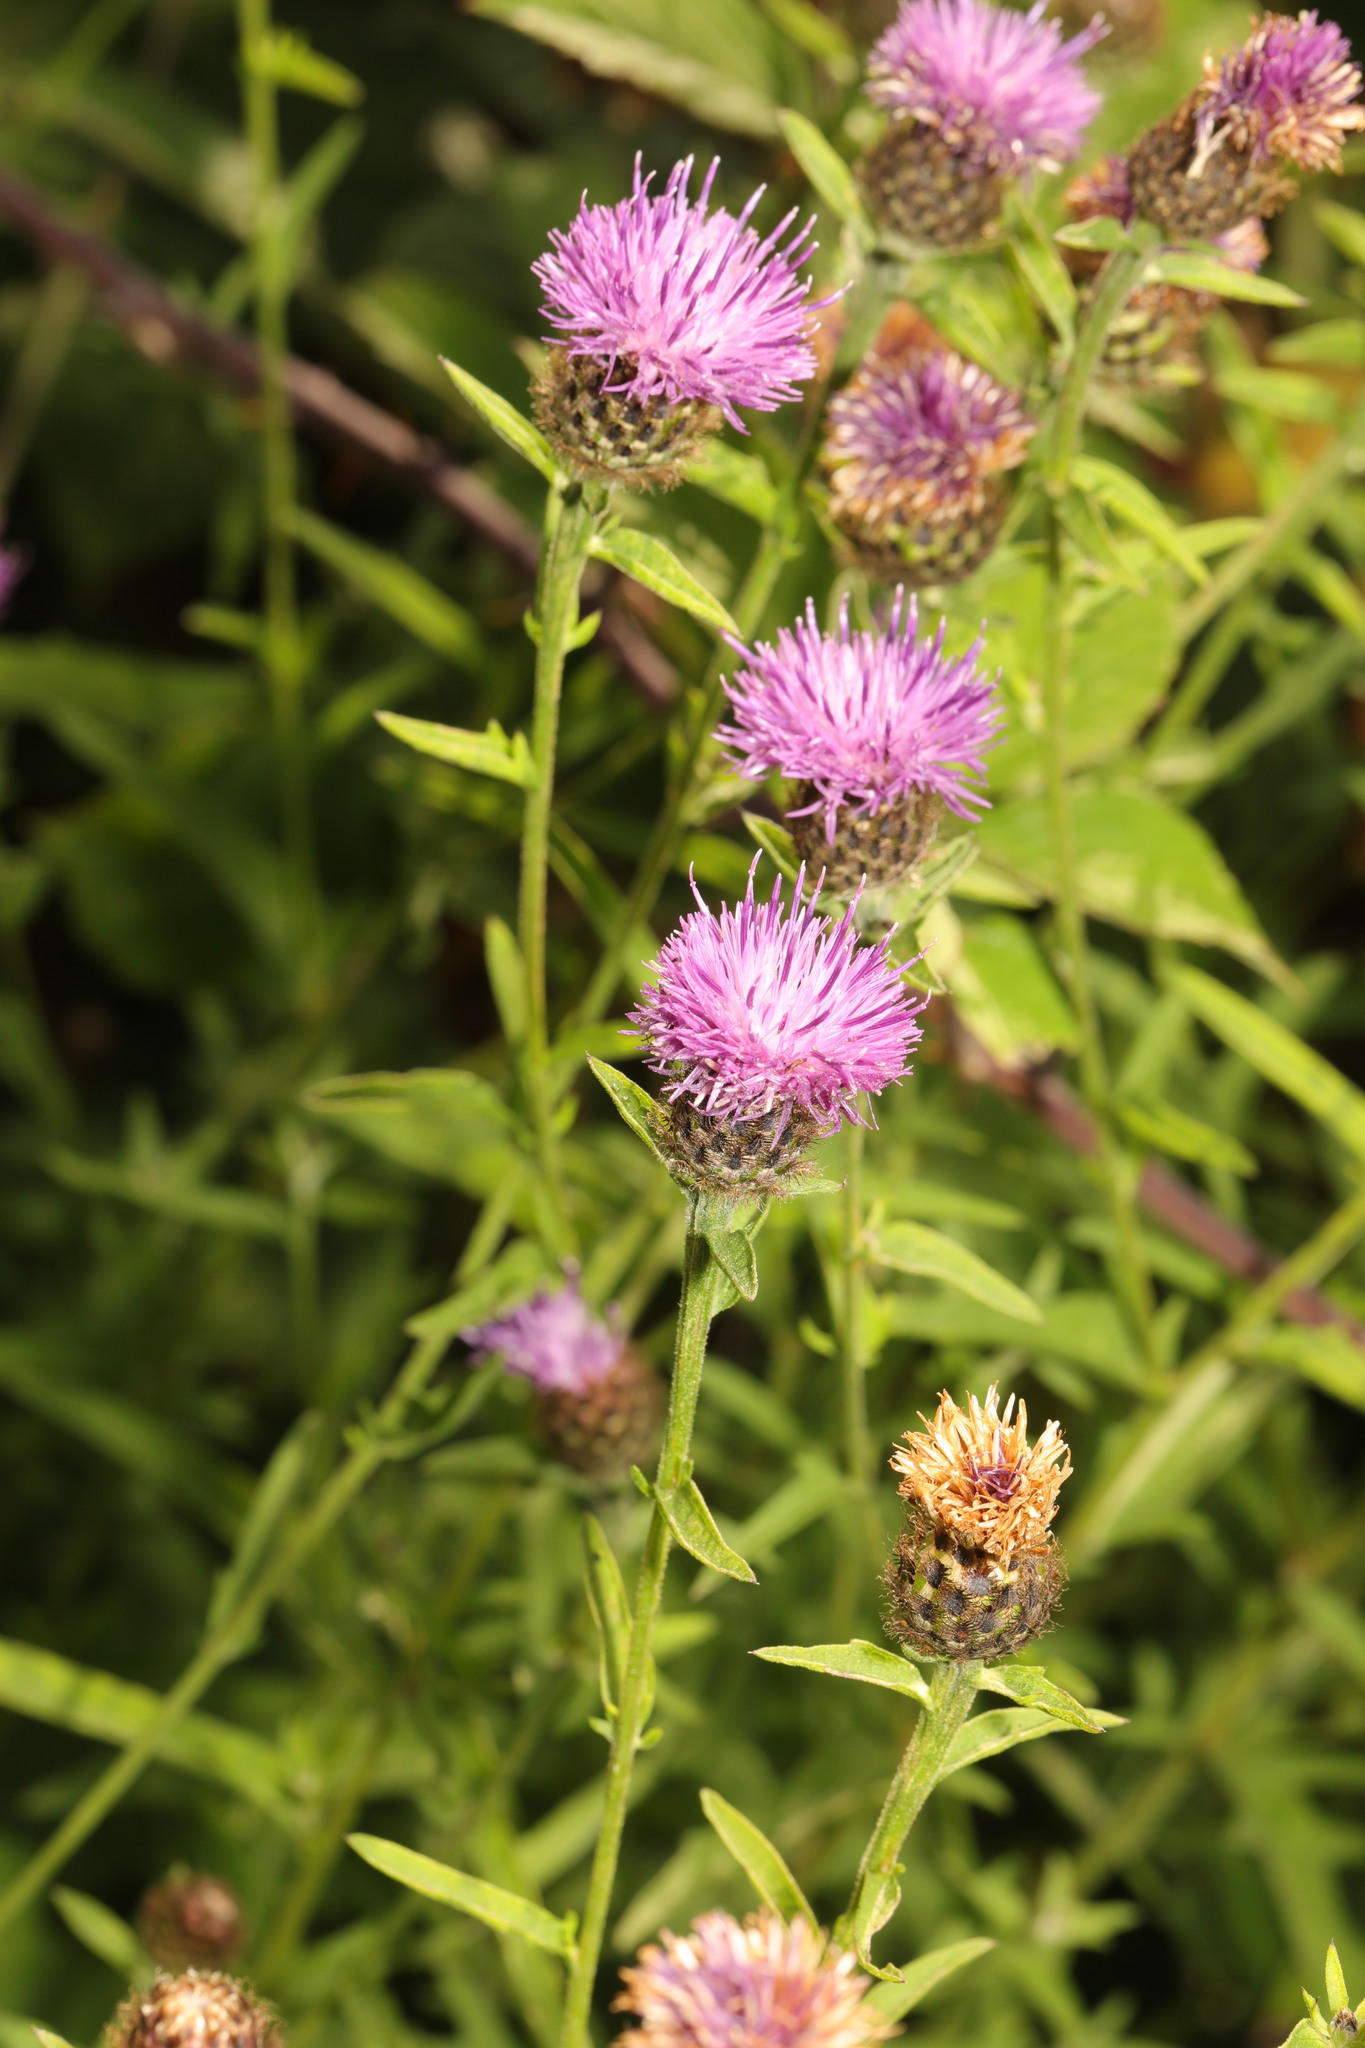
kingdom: Plantae
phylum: Tracheophyta
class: Magnoliopsida
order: Asterales
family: Asteraceae
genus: Centaurea
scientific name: Centaurea nigra
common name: Lesser knapweed
